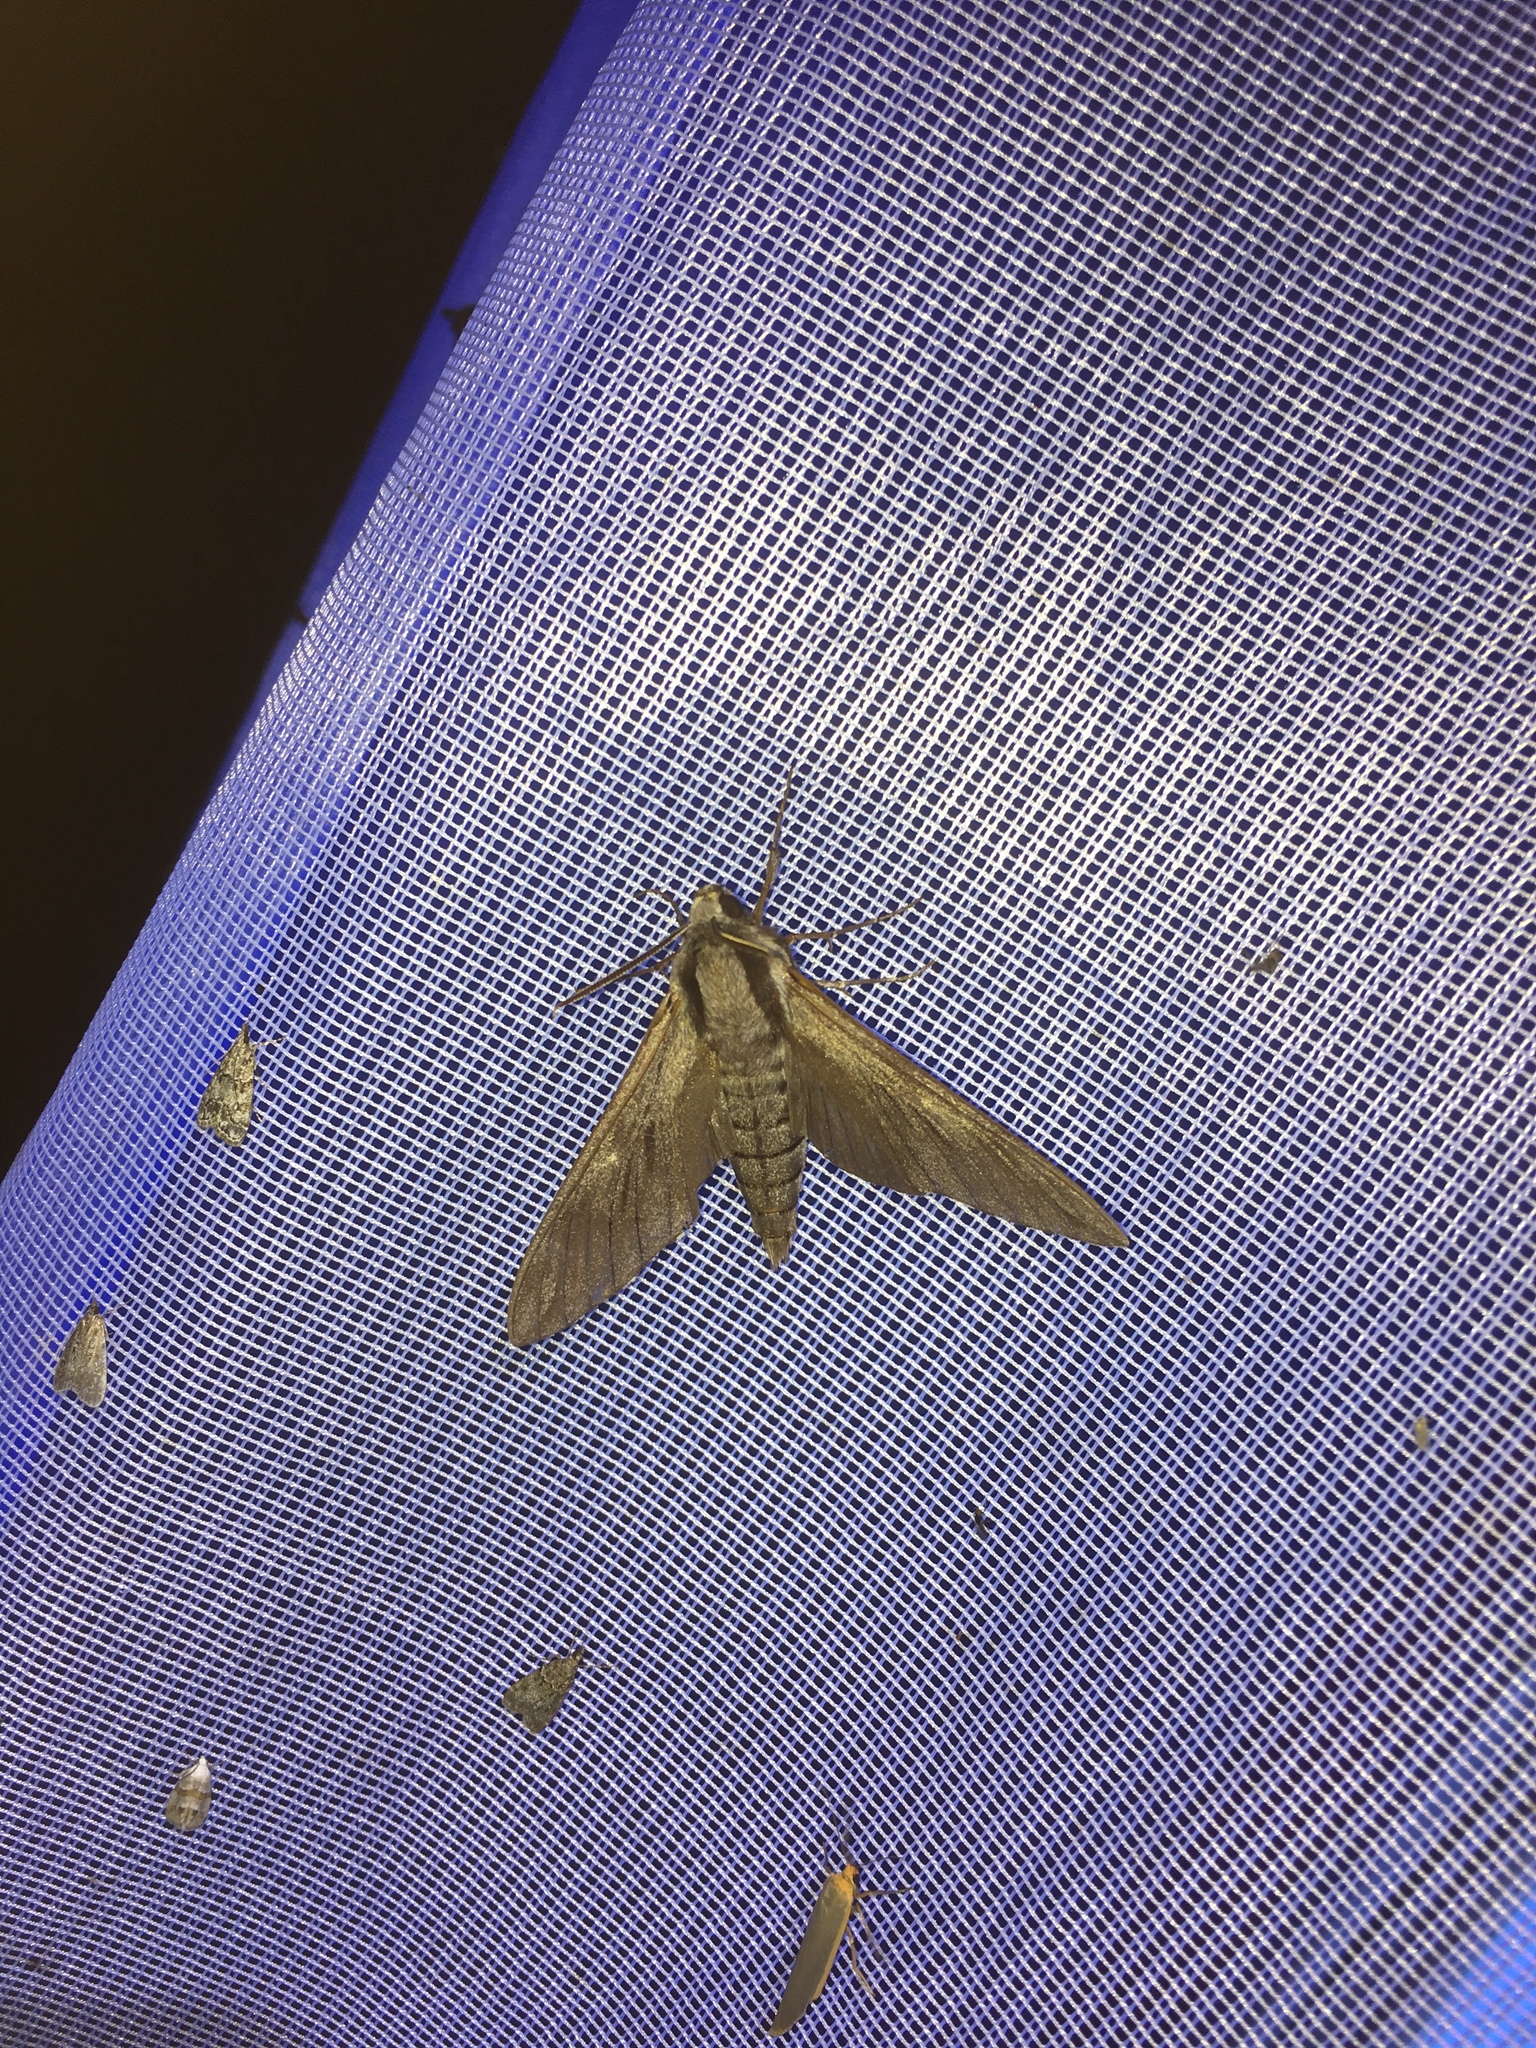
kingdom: Animalia
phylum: Arthropoda
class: Insecta
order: Lepidoptera
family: Sphingidae
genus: Sphinx
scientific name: Sphinx pinastri
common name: Pine hawk-moth
